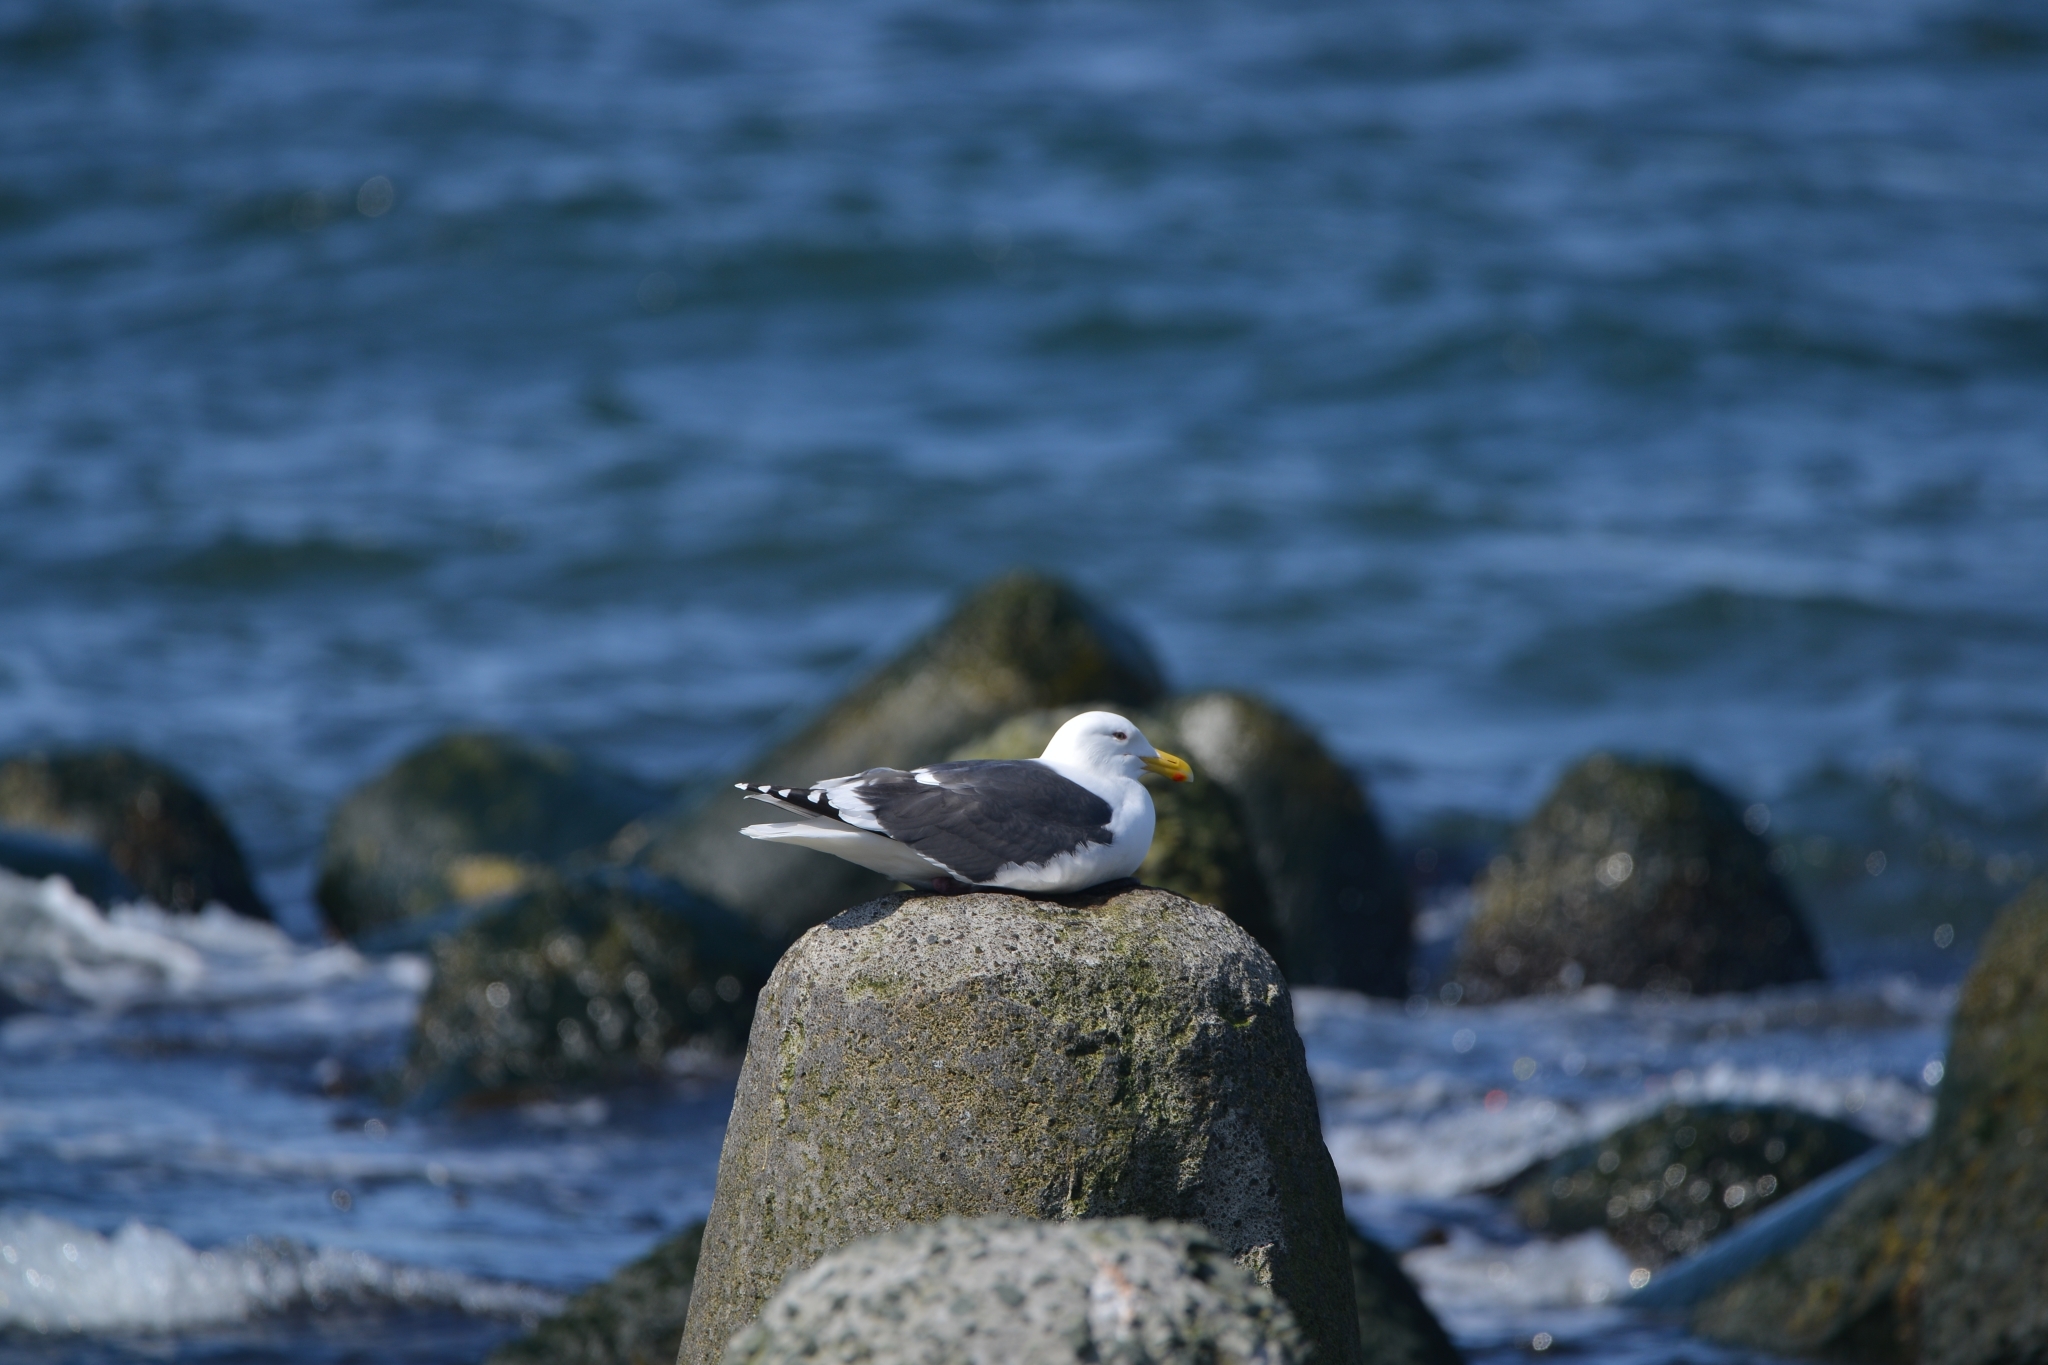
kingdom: Animalia
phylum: Chordata
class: Aves
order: Charadriiformes
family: Laridae
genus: Larus
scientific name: Larus schistisagus
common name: Slaty-backed gull
